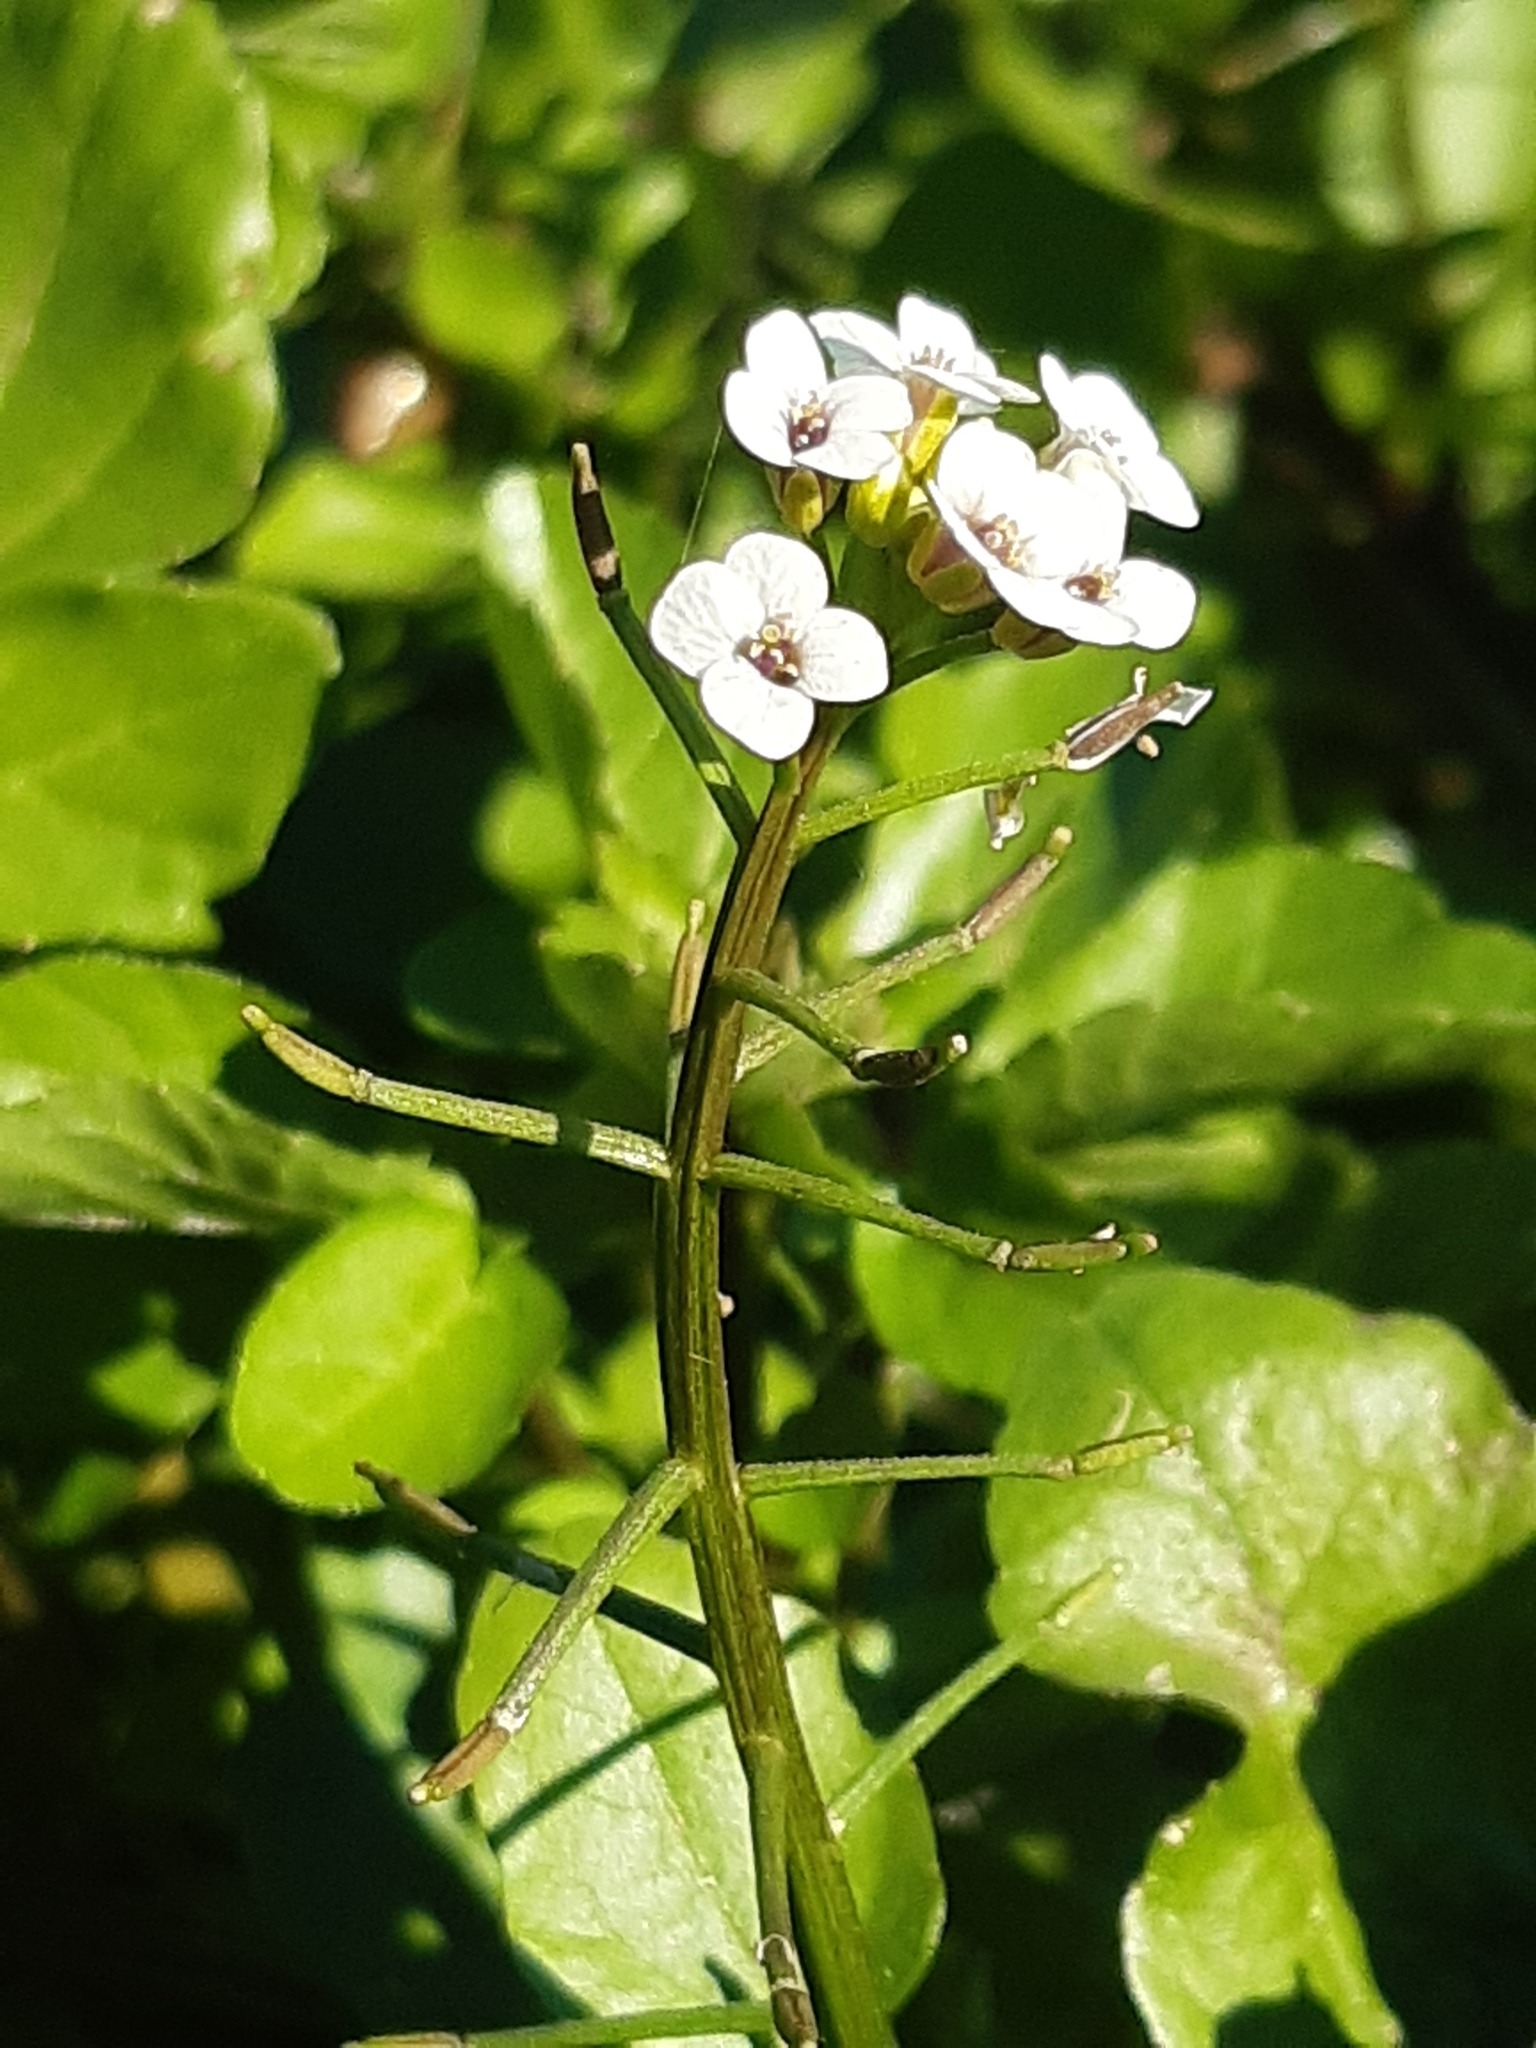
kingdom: Plantae
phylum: Tracheophyta
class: Magnoliopsida
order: Brassicales
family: Brassicaceae
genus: Nasturtium
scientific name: Nasturtium officinale
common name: Watercress
